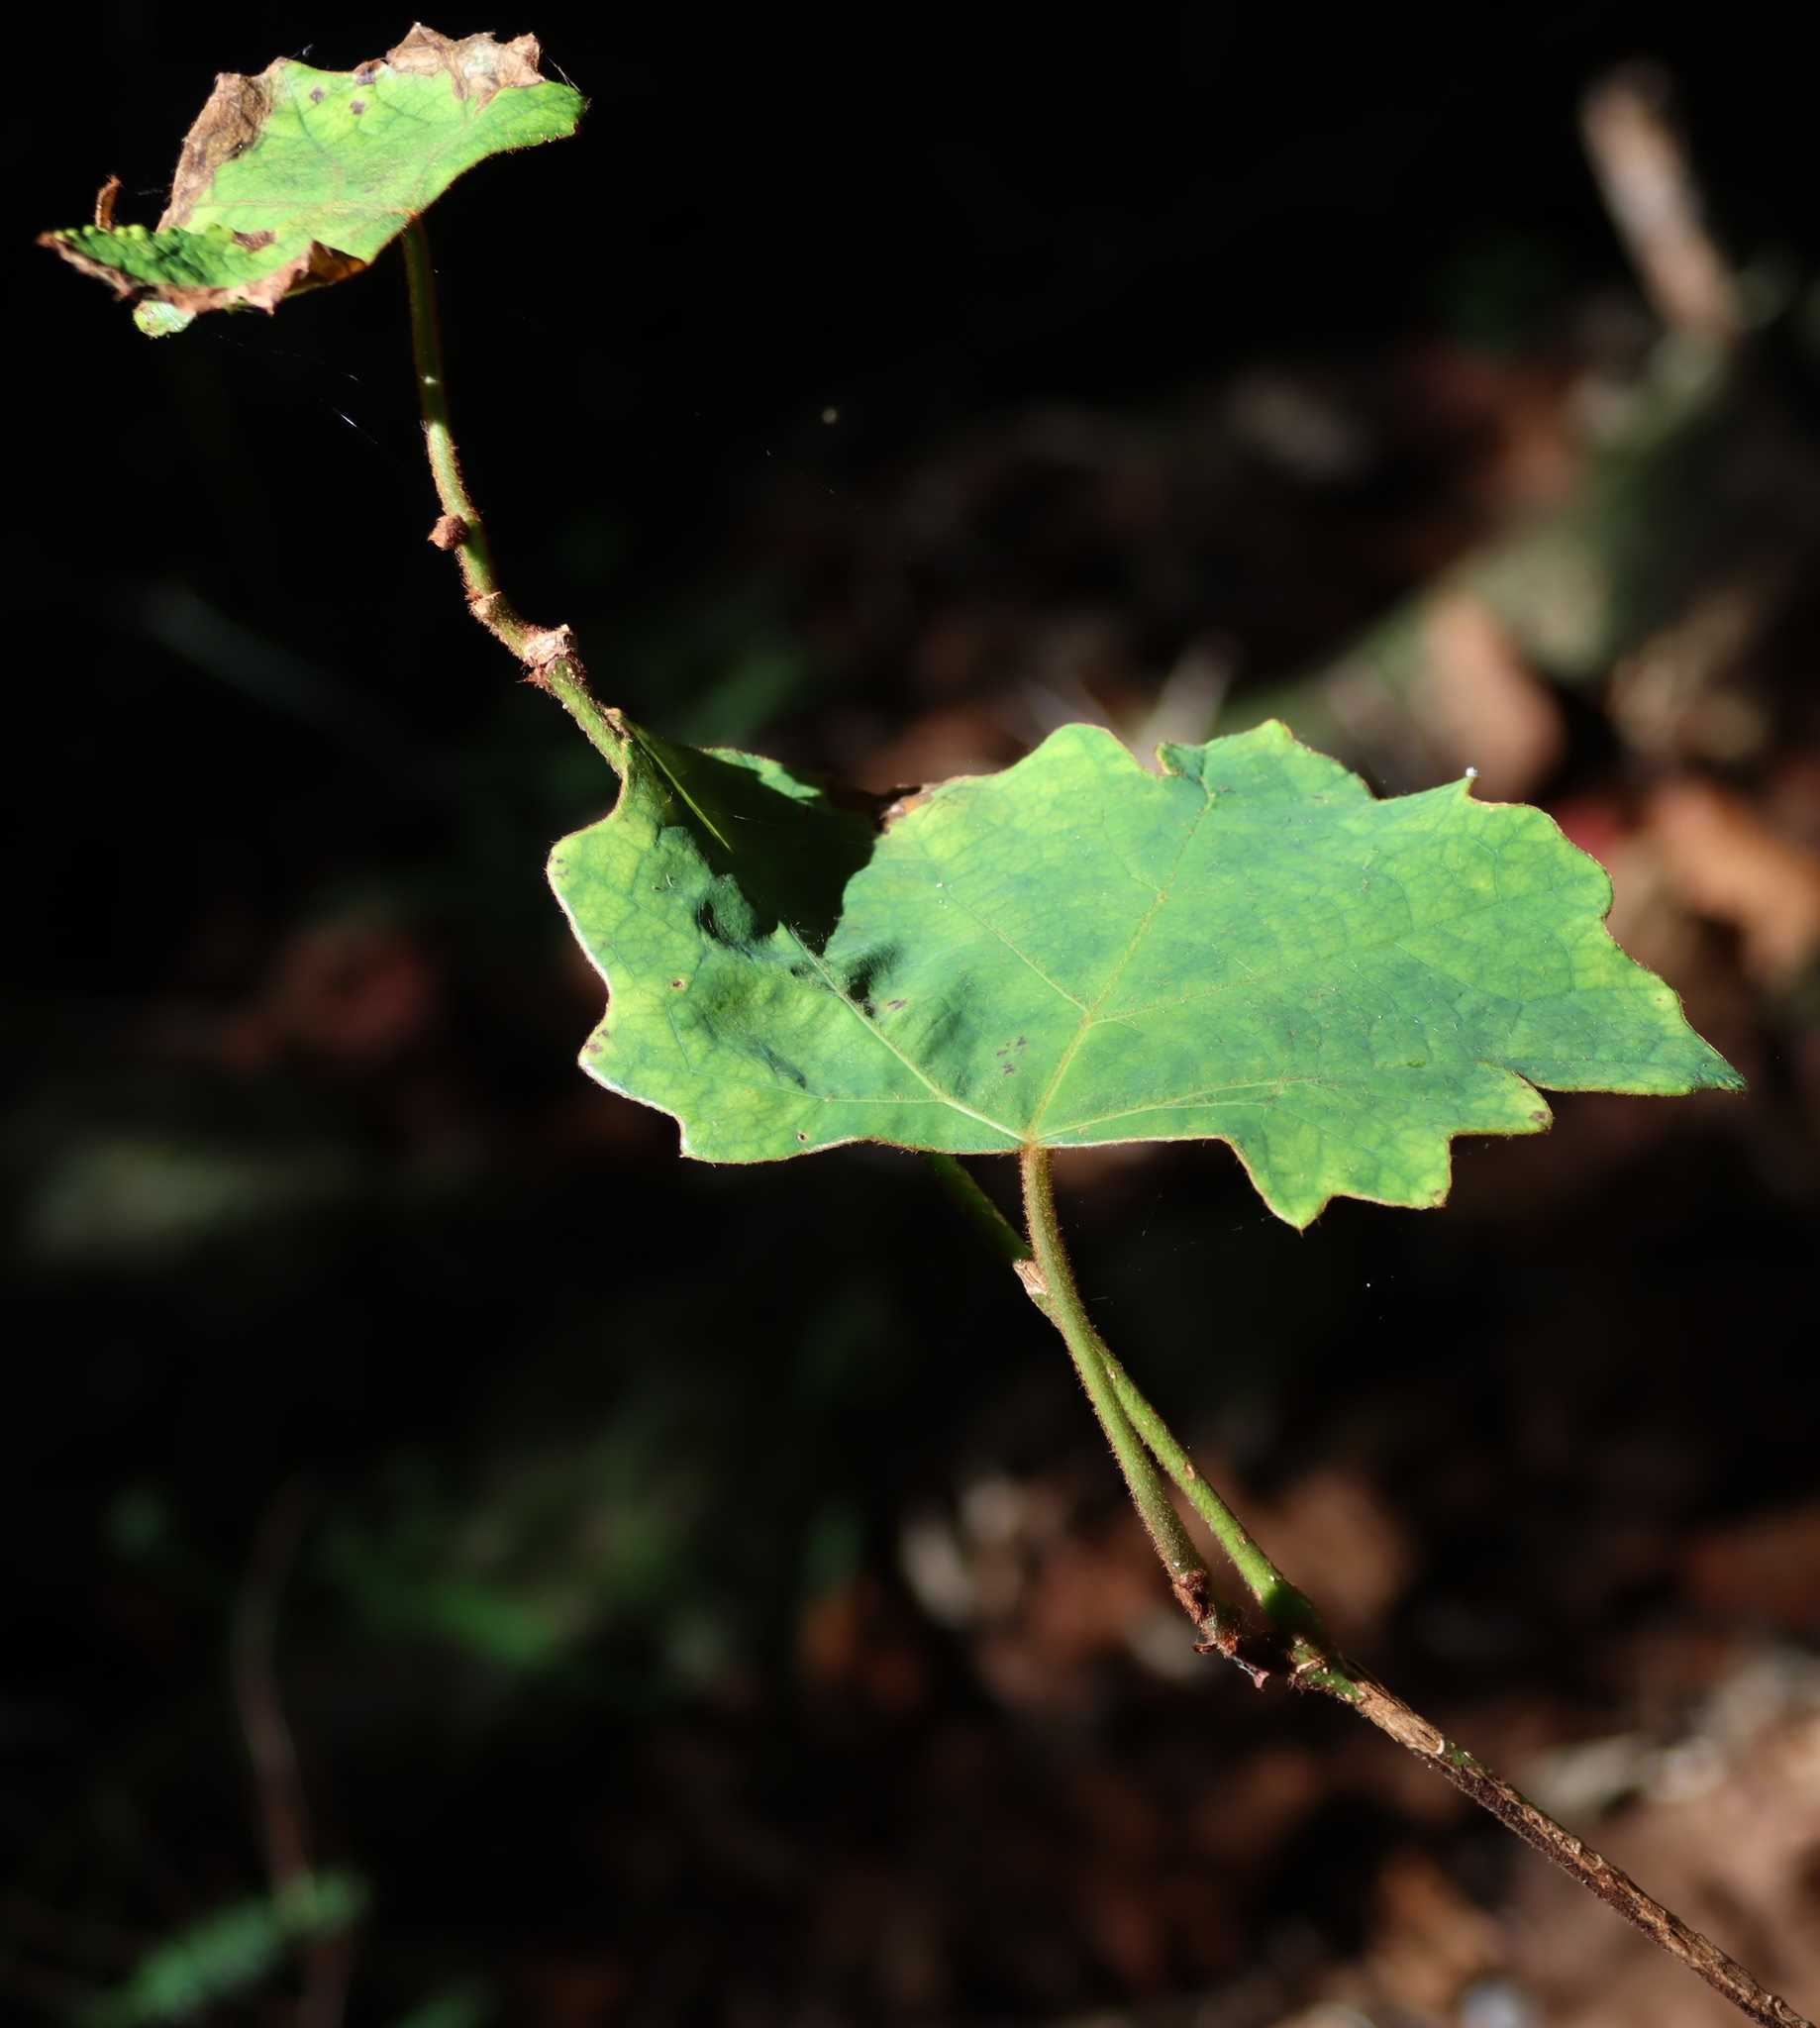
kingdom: Plantae
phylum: Tracheophyta
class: Magnoliopsida
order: Vitales
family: Vitaceae
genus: Rhoicissus
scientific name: Rhoicissus tomentosa
